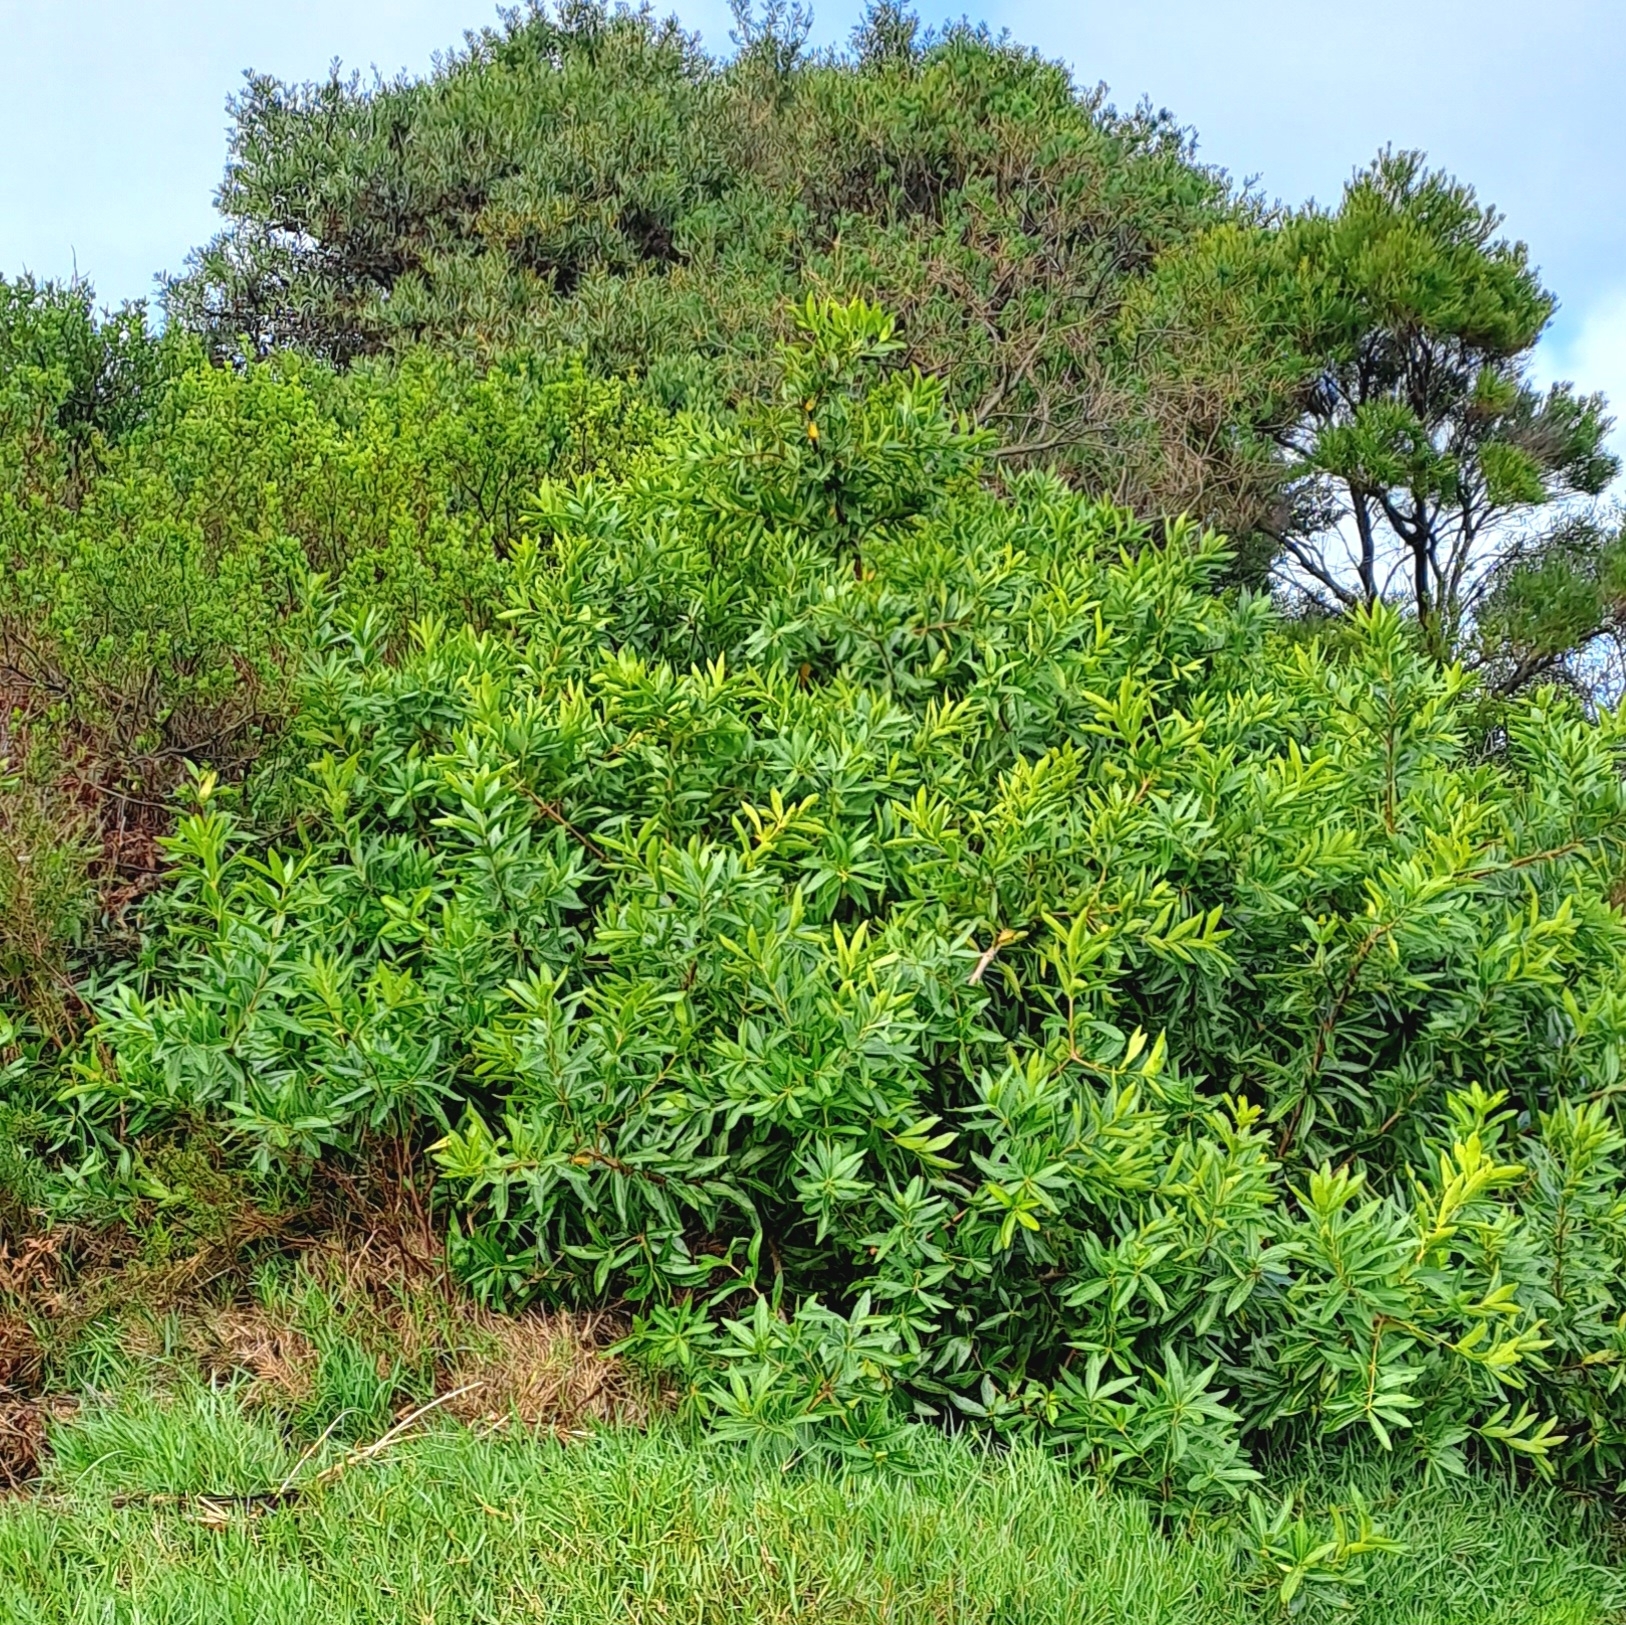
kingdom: Plantae
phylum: Tracheophyta
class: Magnoliopsida
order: Proteales
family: Proteaceae
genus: Brabejum
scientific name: Brabejum stellatifolium
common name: Wild almond
